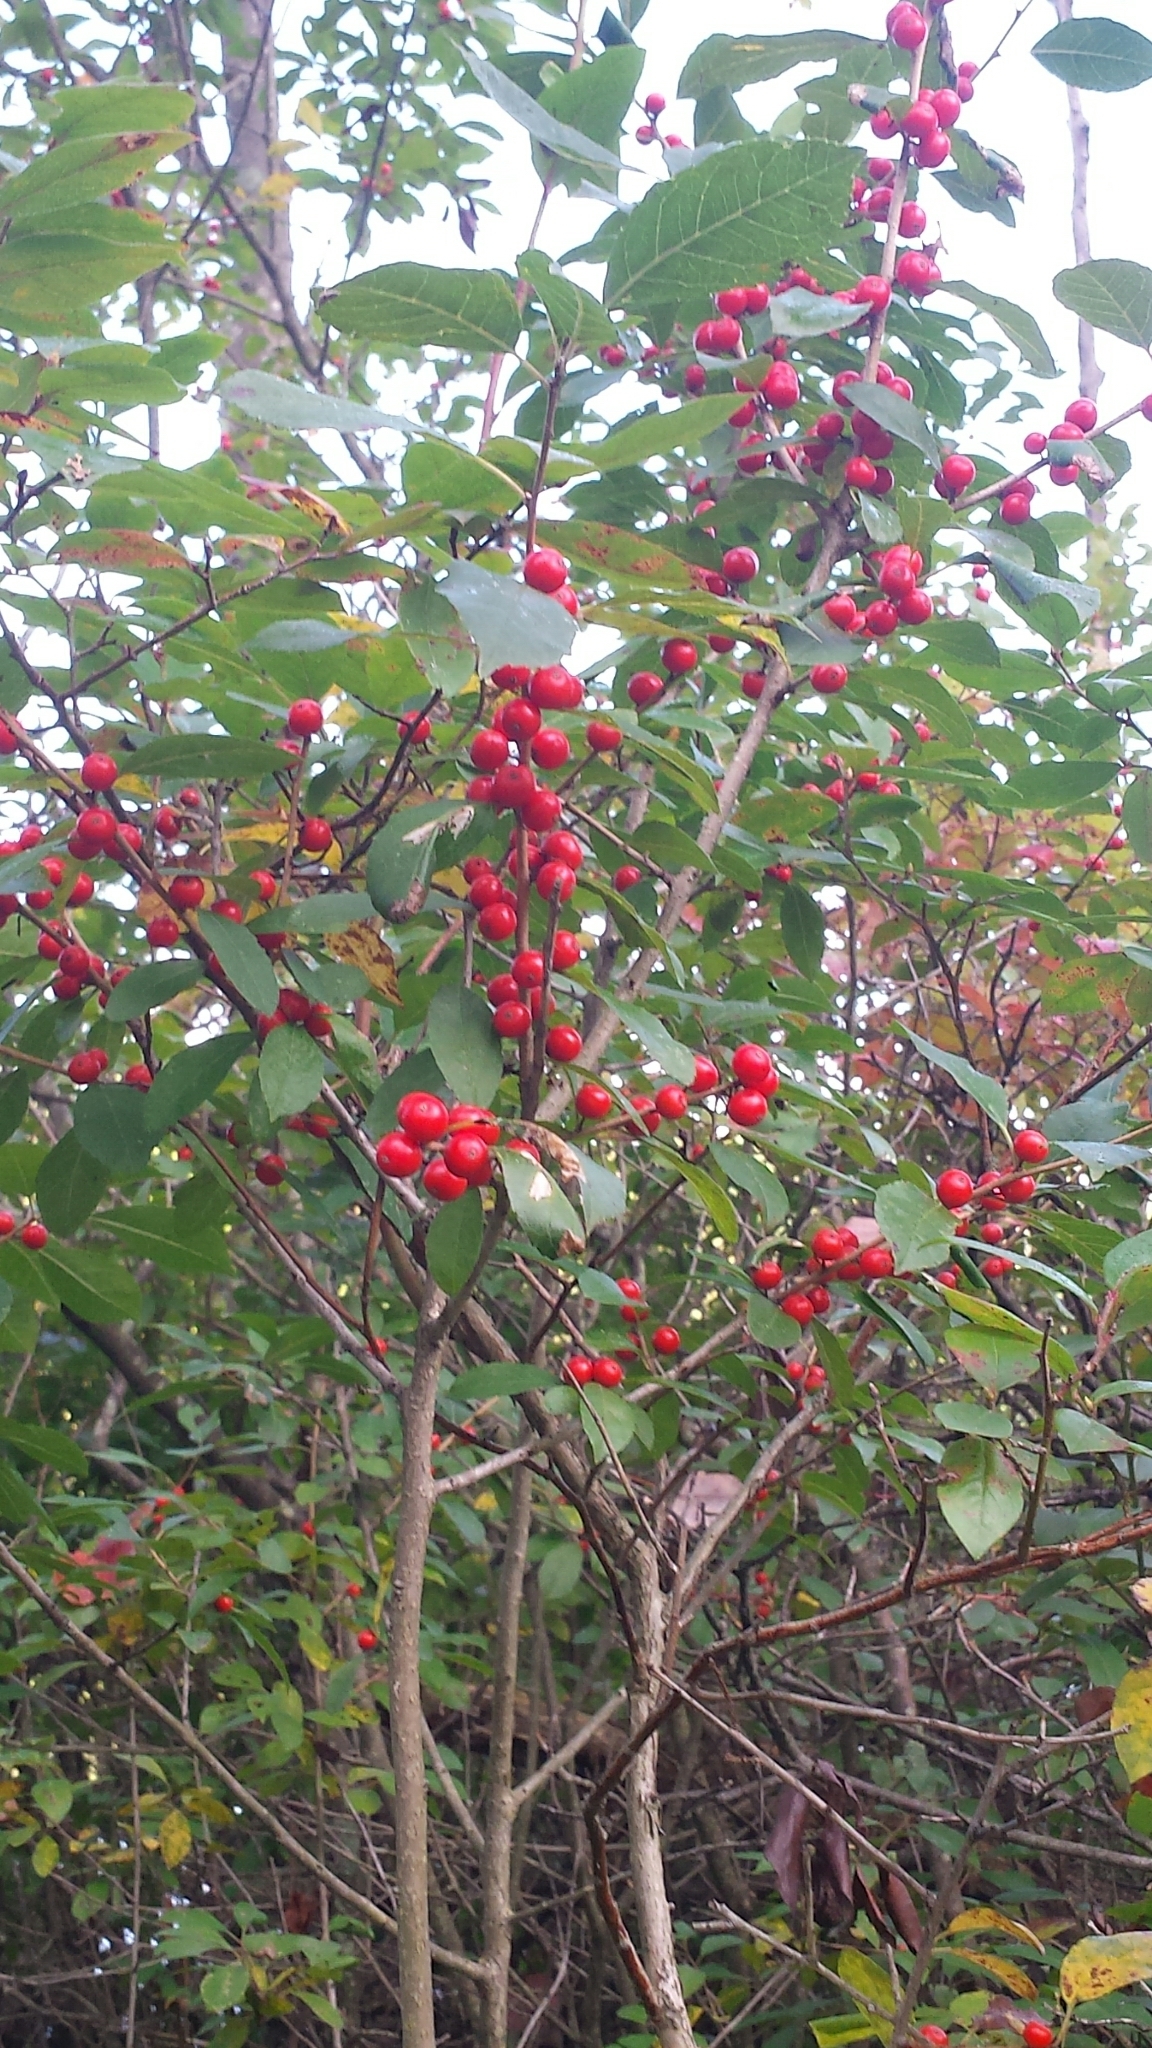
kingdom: Plantae
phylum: Tracheophyta
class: Magnoliopsida
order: Aquifoliales
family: Aquifoliaceae
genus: Ilex
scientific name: Ilex verticillata
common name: Virginia winterberry
